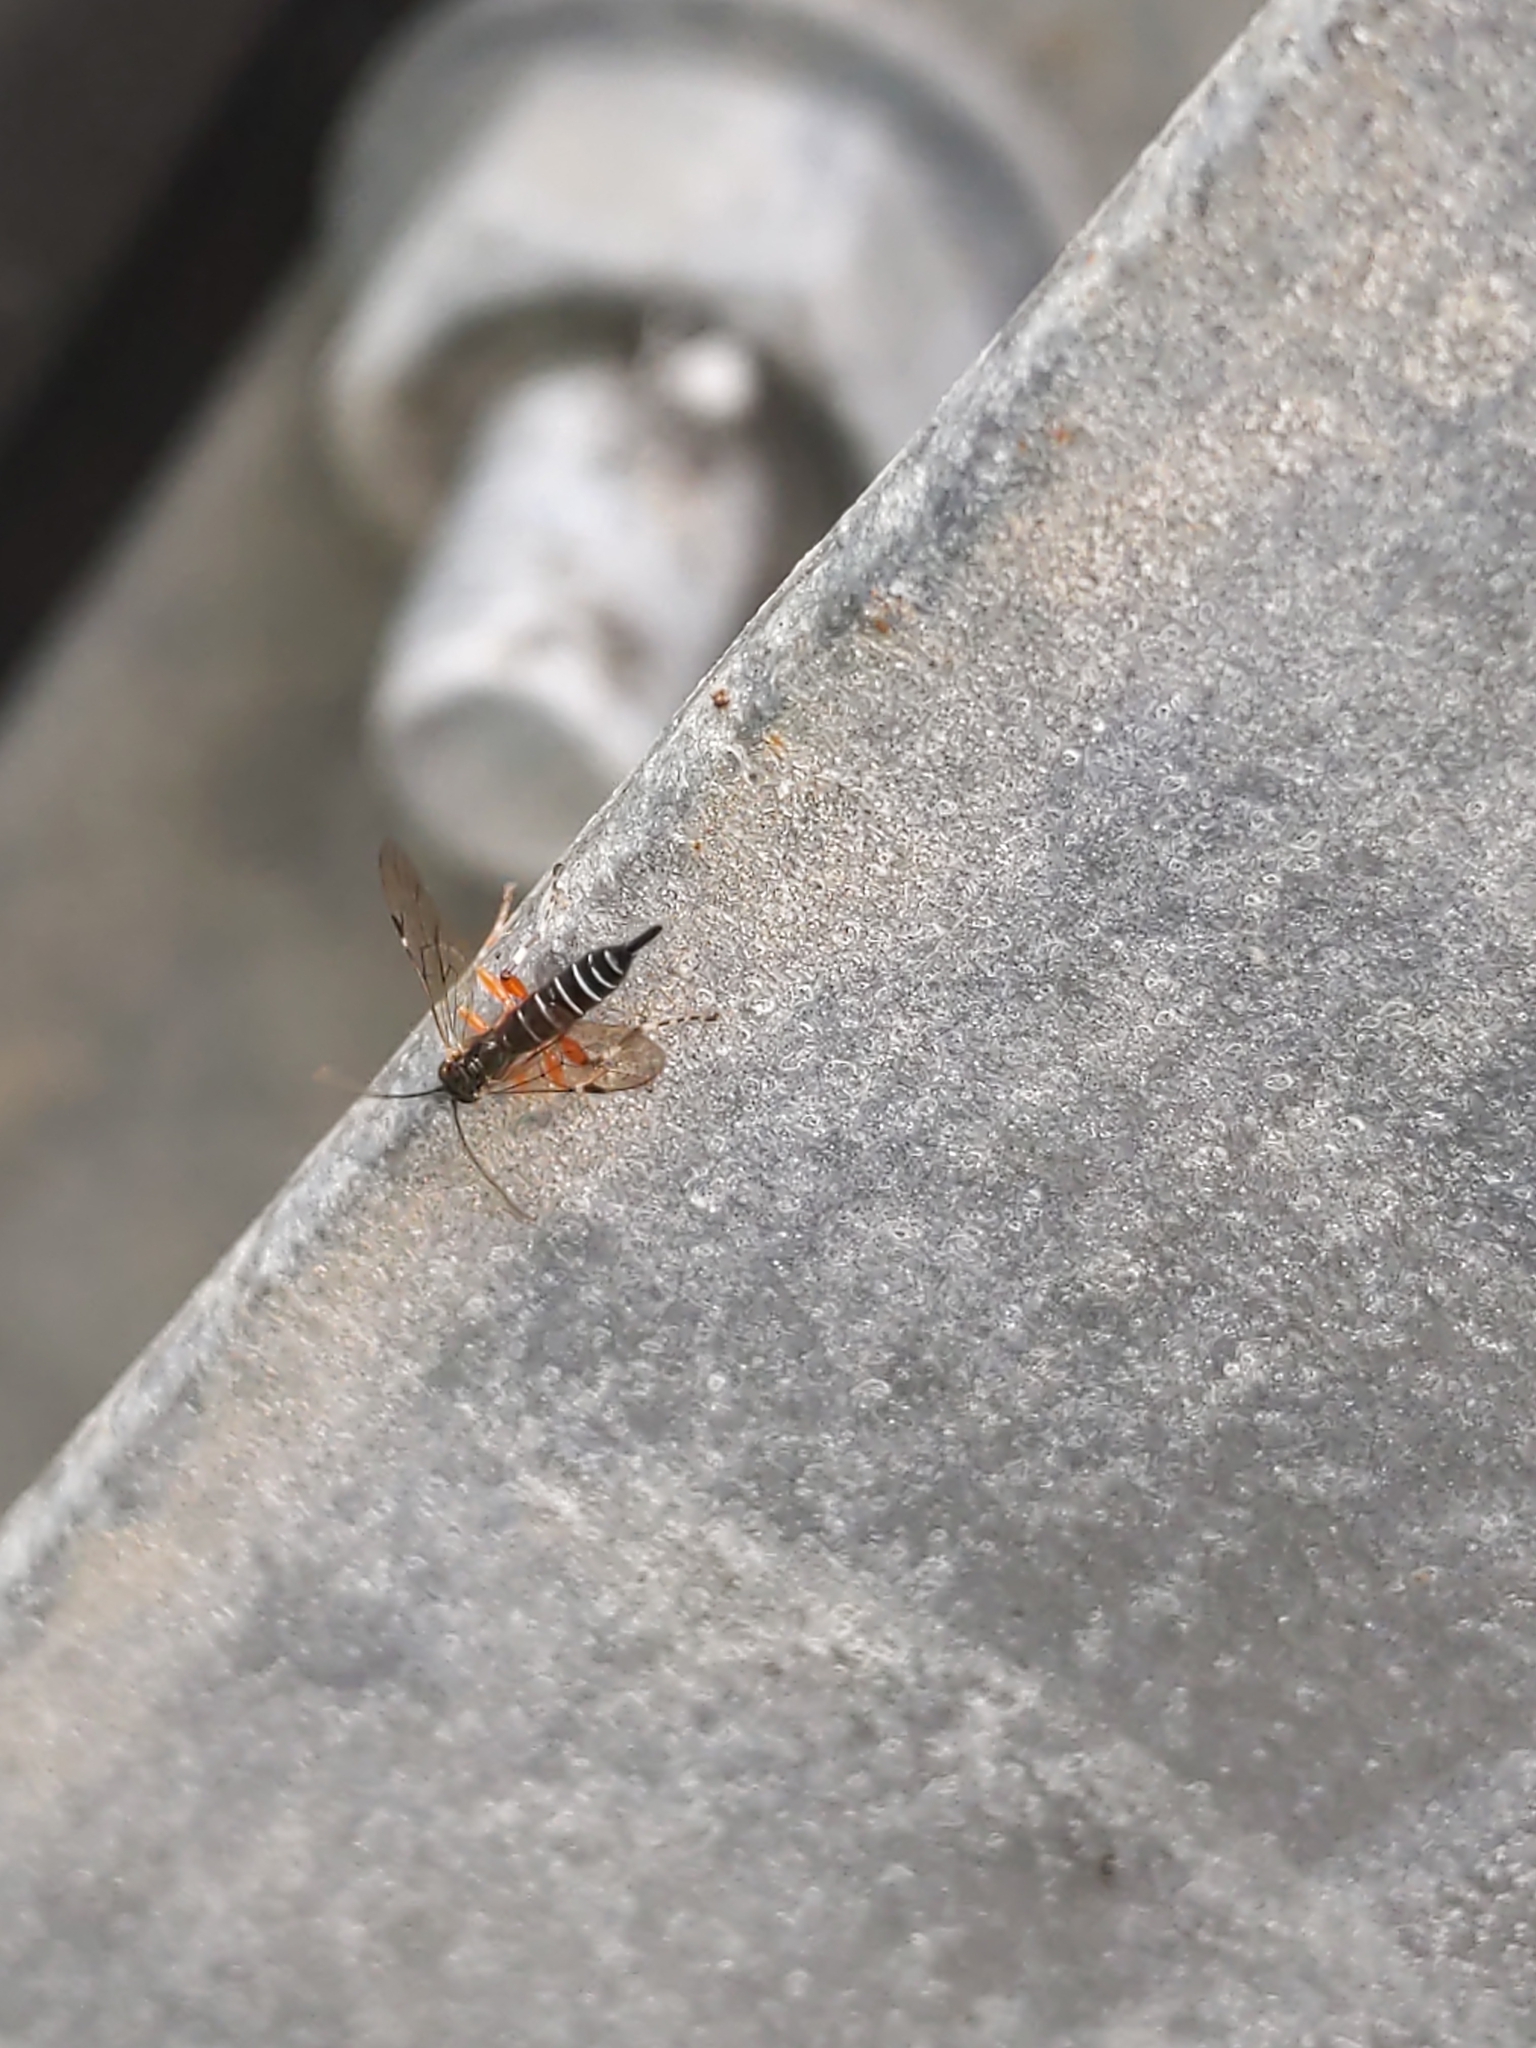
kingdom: Animalia
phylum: Arthropoda
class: Insecta
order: Hymenoptera
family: Ichneumonidae
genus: Itoplectis
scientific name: Itoplectis conquisitor
